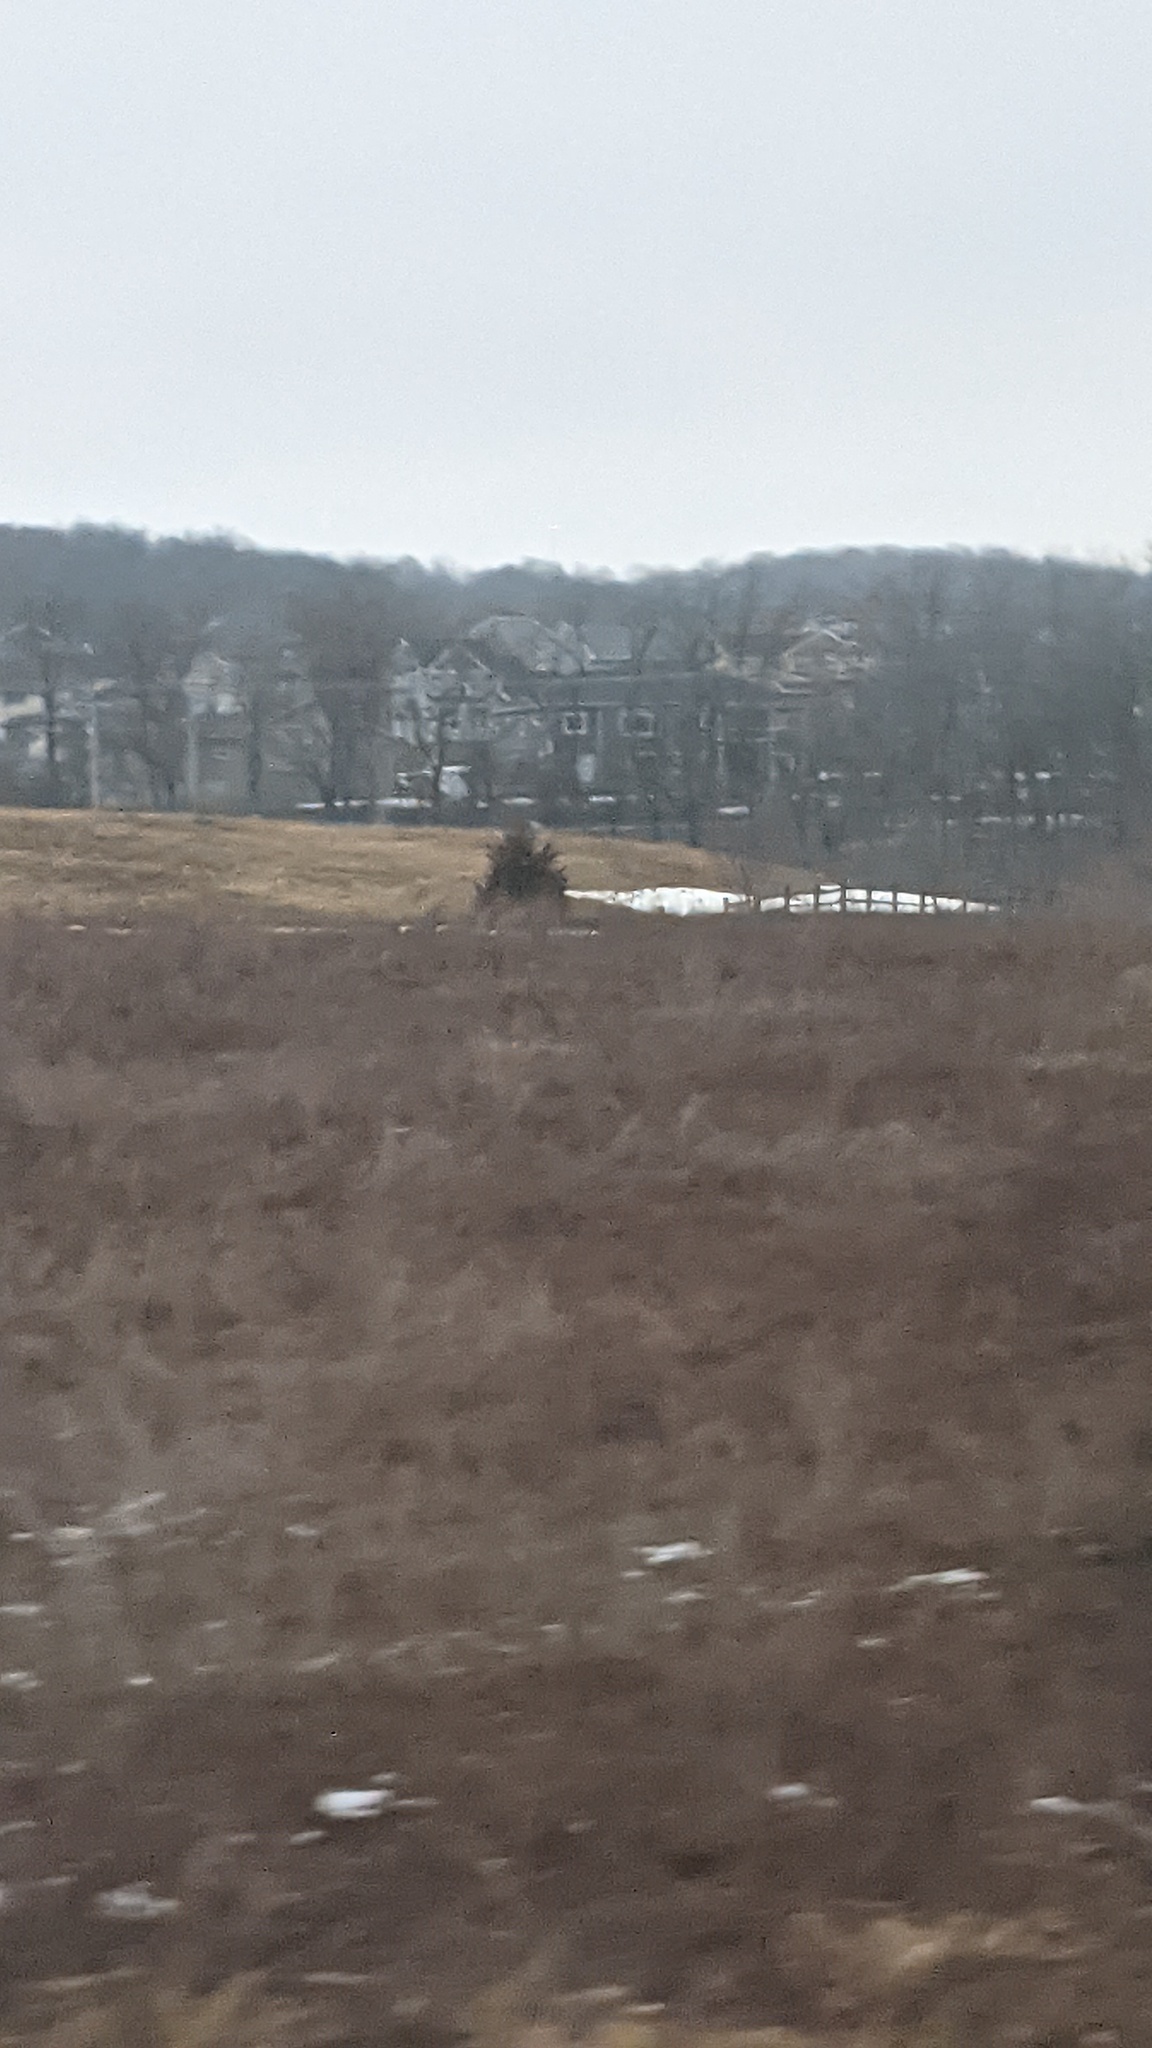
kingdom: Plantae
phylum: Tracheophyta
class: Pinopsida
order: Pinales
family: Cupressaceae
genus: Juniperus
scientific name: Juniperus virginiana
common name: Red juniper
